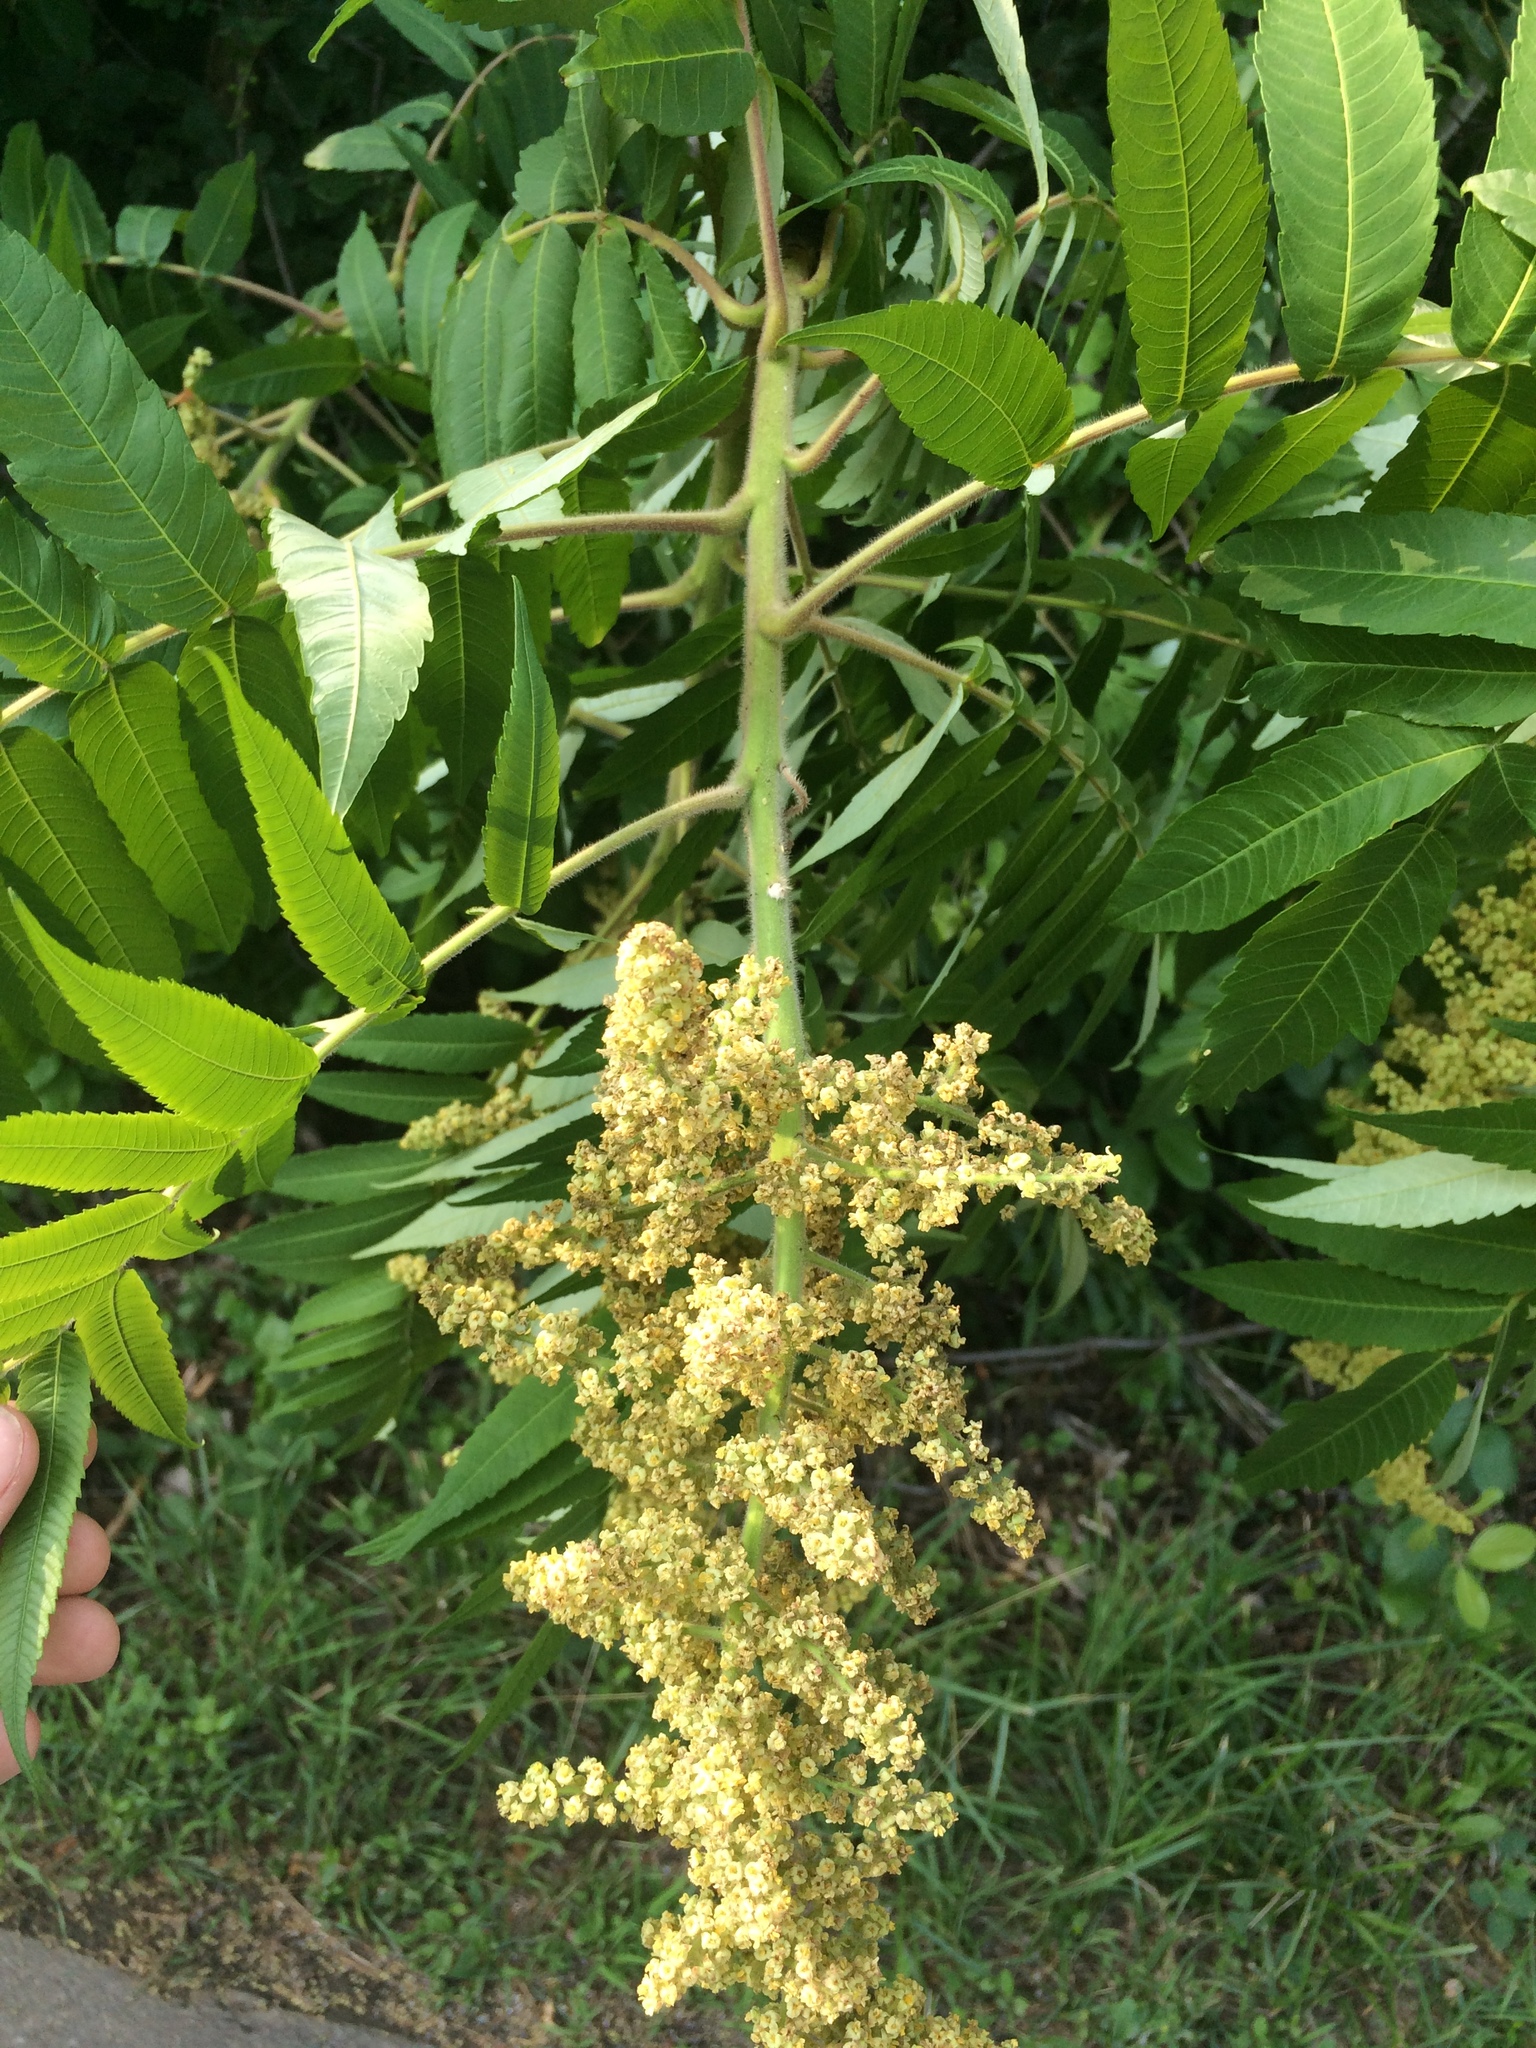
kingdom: Plantae
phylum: Tracheophyta
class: Magnoliopsida
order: Sapindales
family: Anacardiaceae
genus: Rhus
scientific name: Rhus typhina
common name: Staghorn sumac
